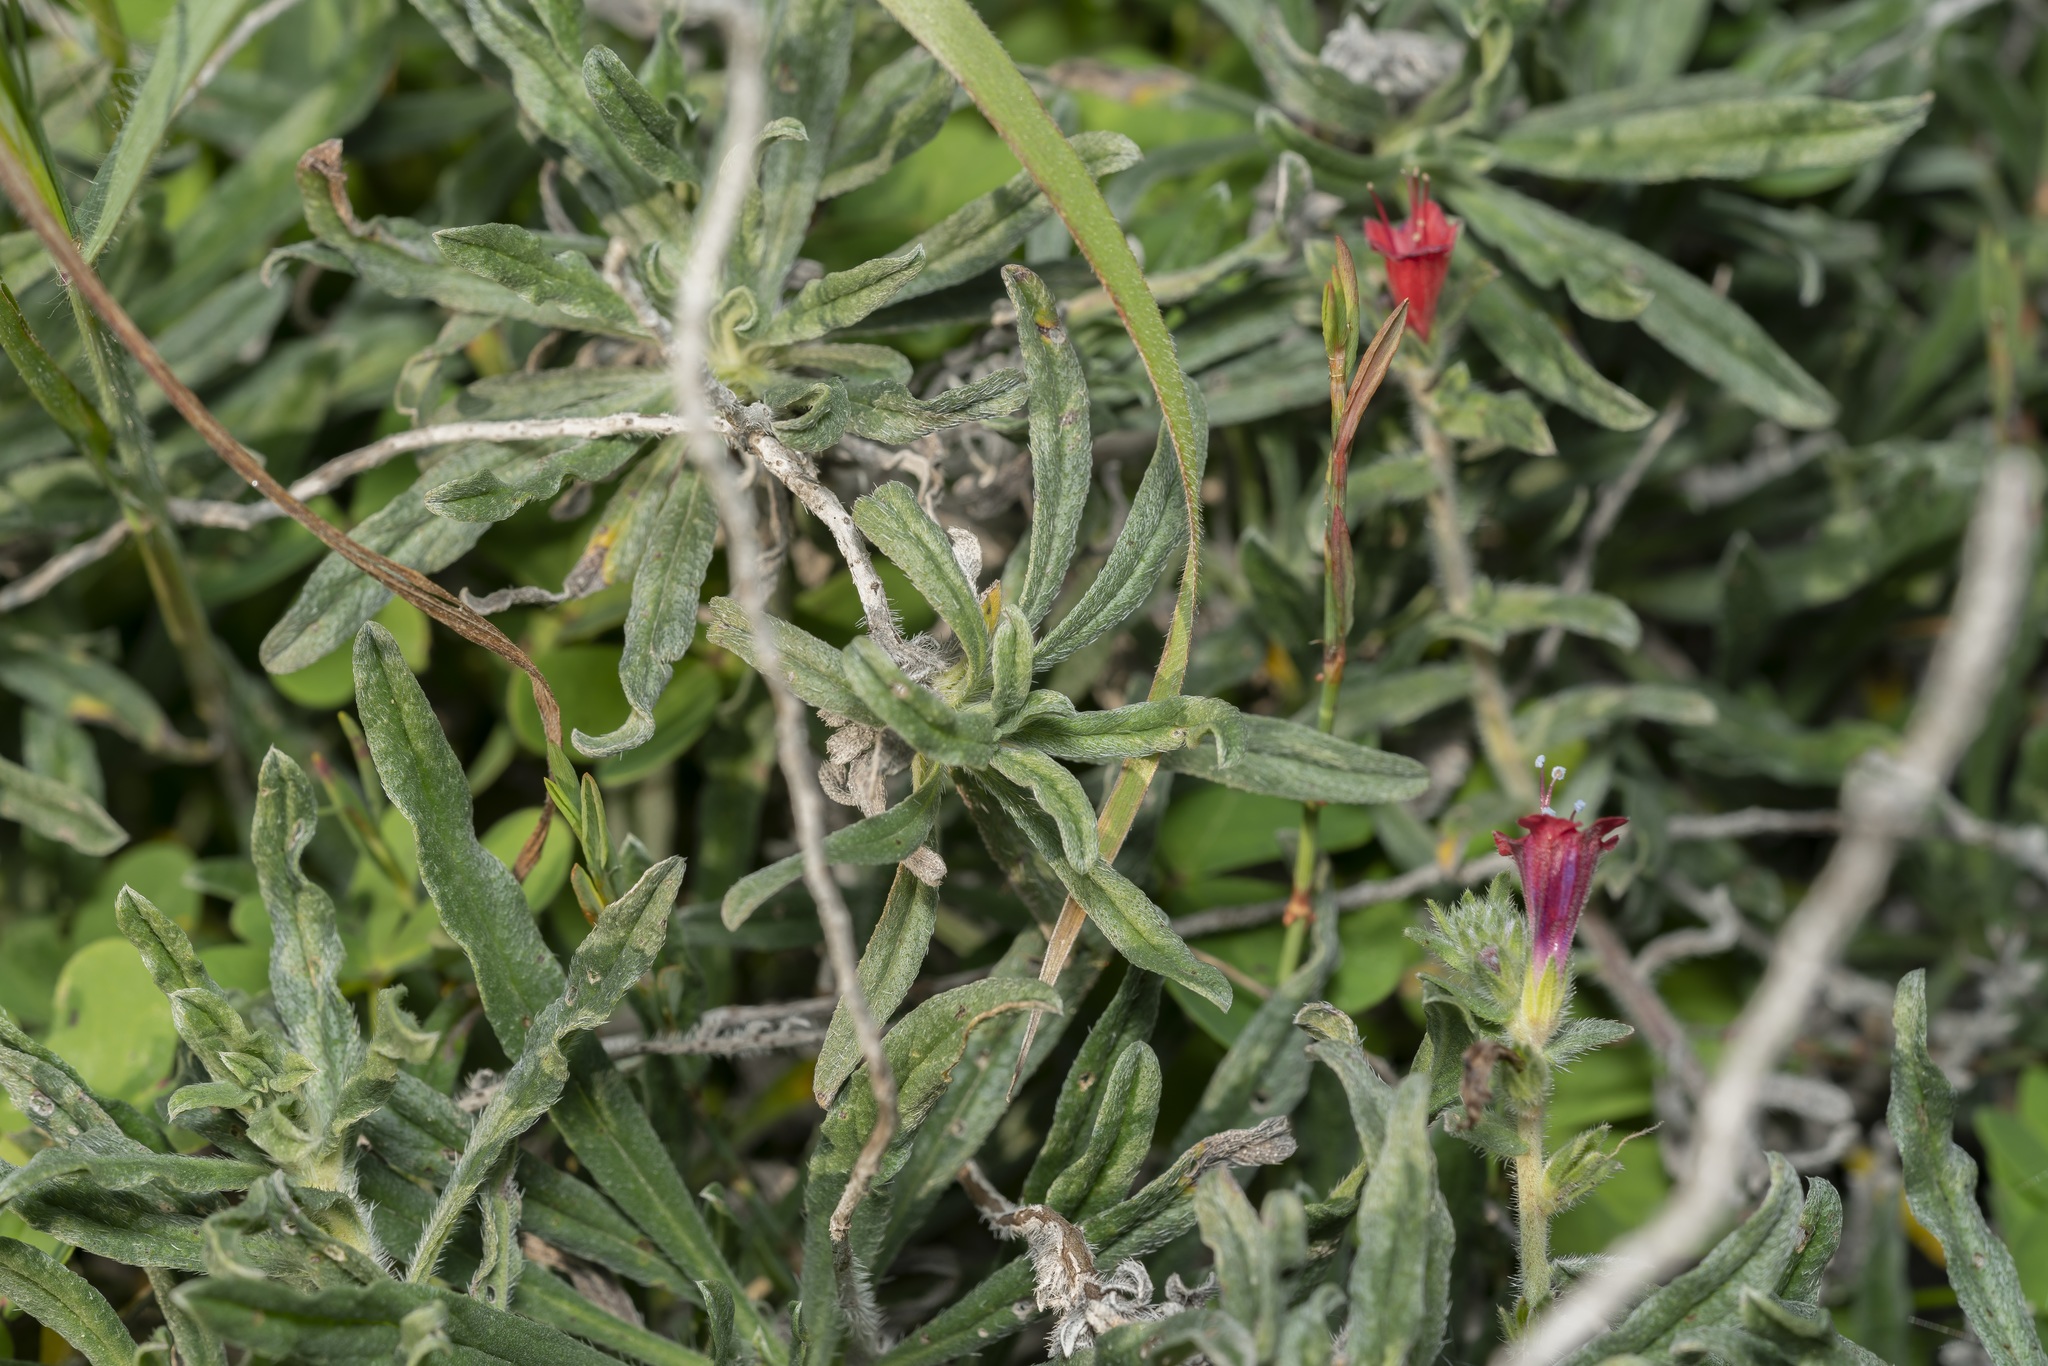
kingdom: Plantae
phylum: Tracheophyta
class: Magnoliopsida
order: Boraginales
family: Boraginaceae
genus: Echium
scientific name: Echium angustifolium
